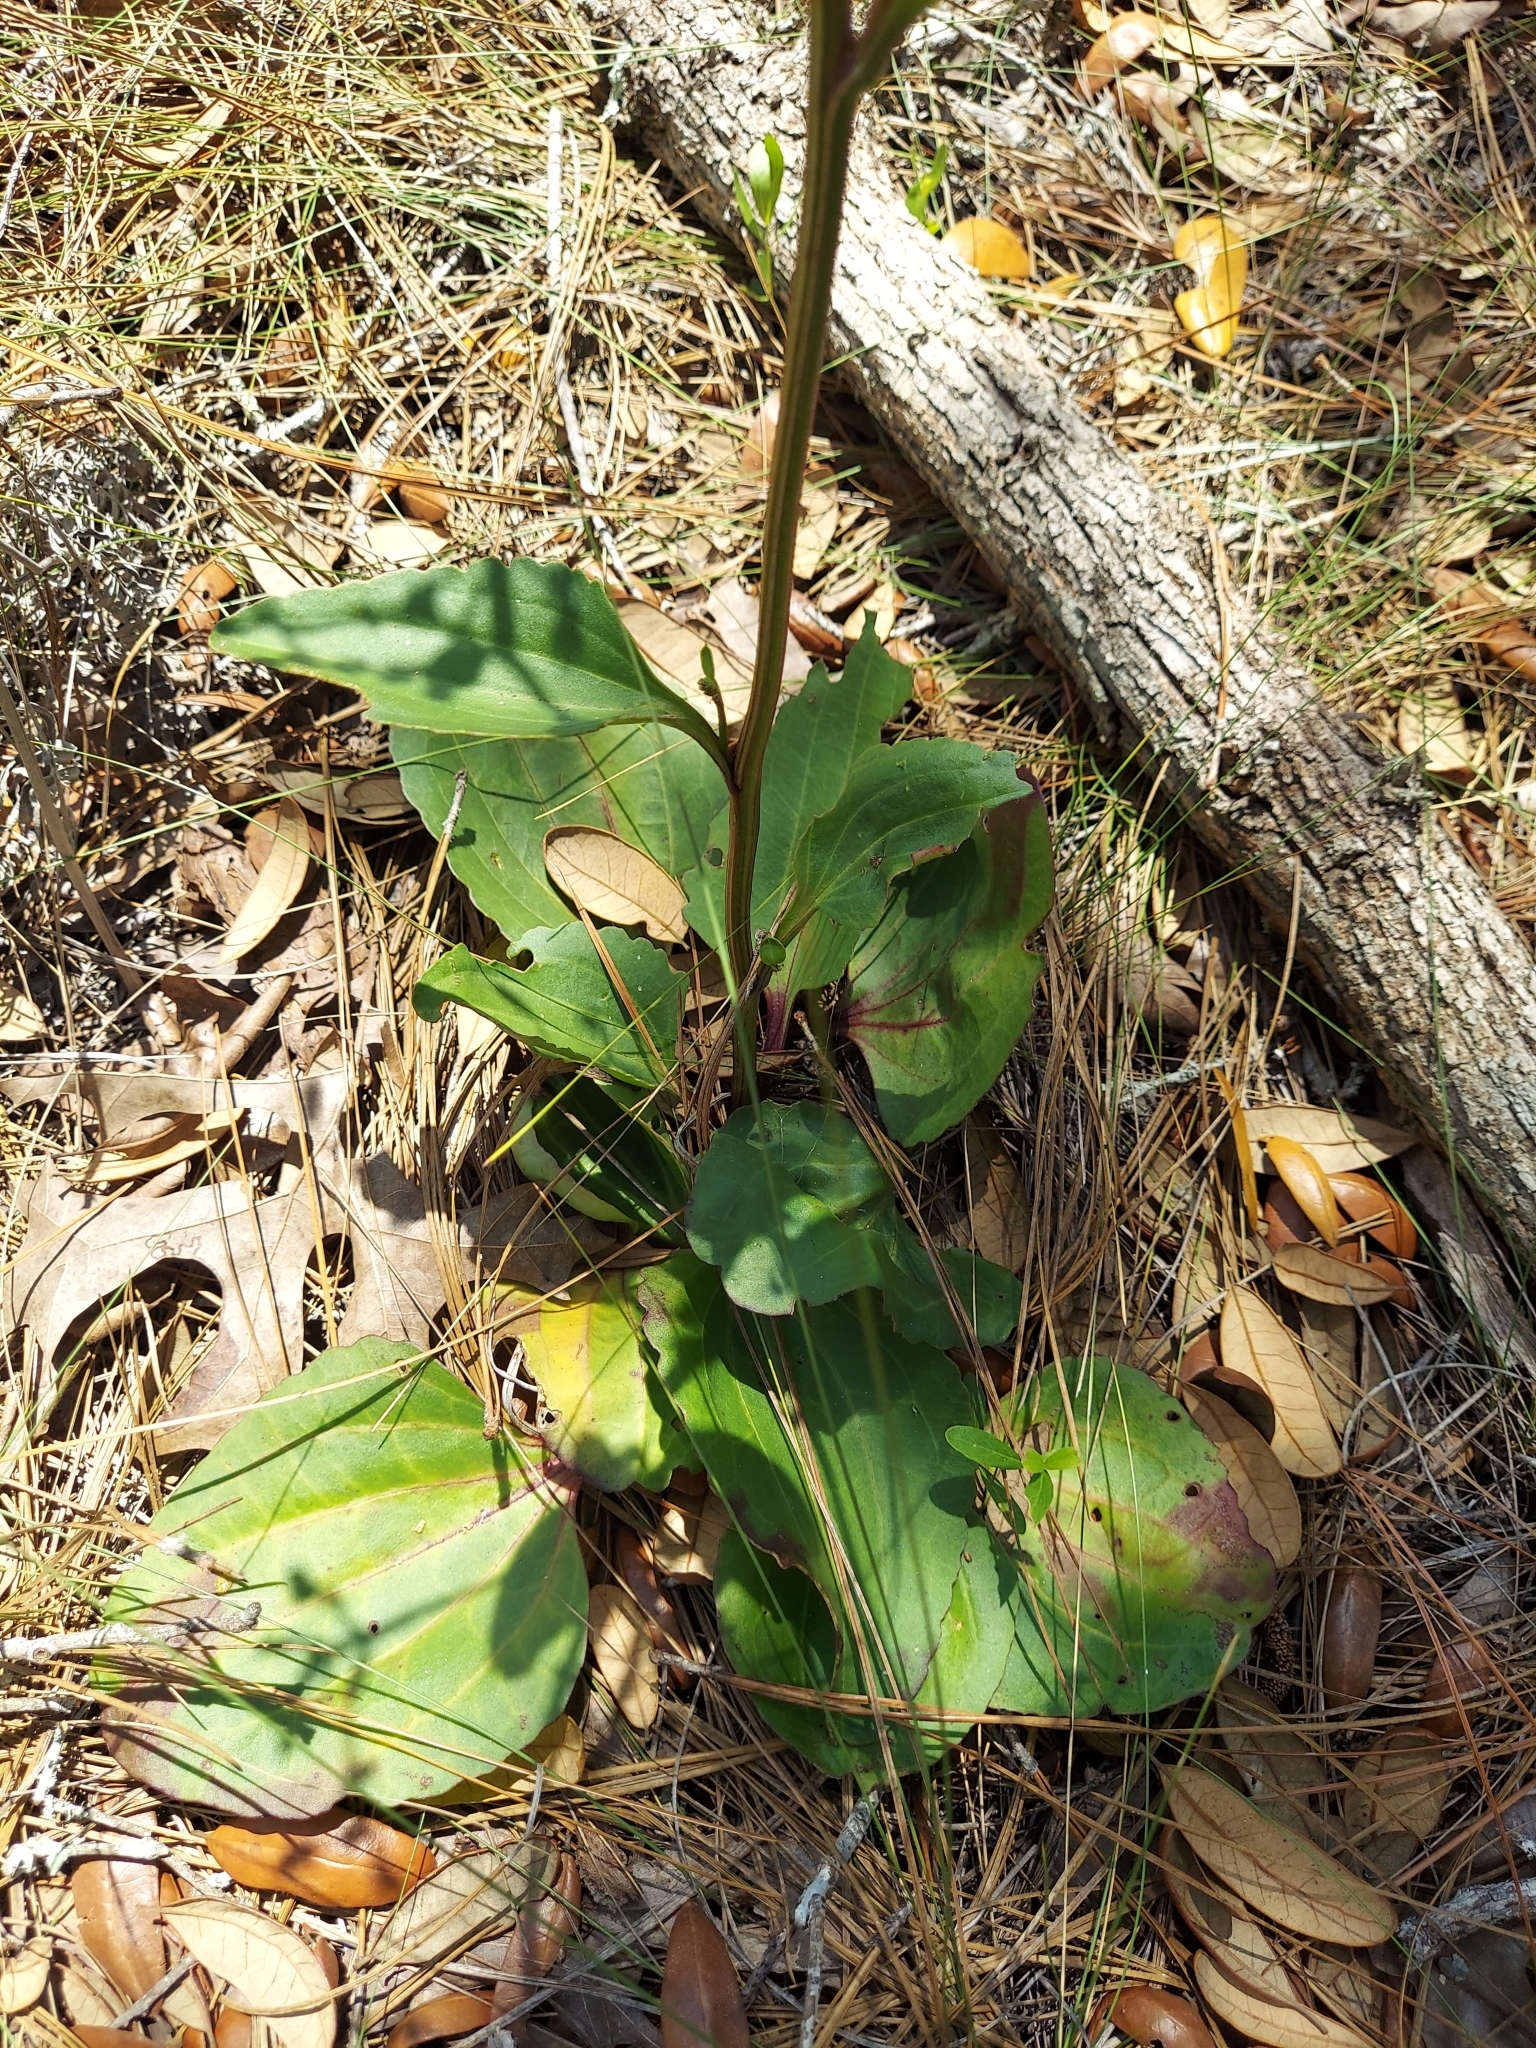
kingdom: Plantae
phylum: Tracheophyta
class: Magnoliopsida
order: Asterales
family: Asteraceae
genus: Arnoglossum
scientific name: Arnoglossum floridanum
